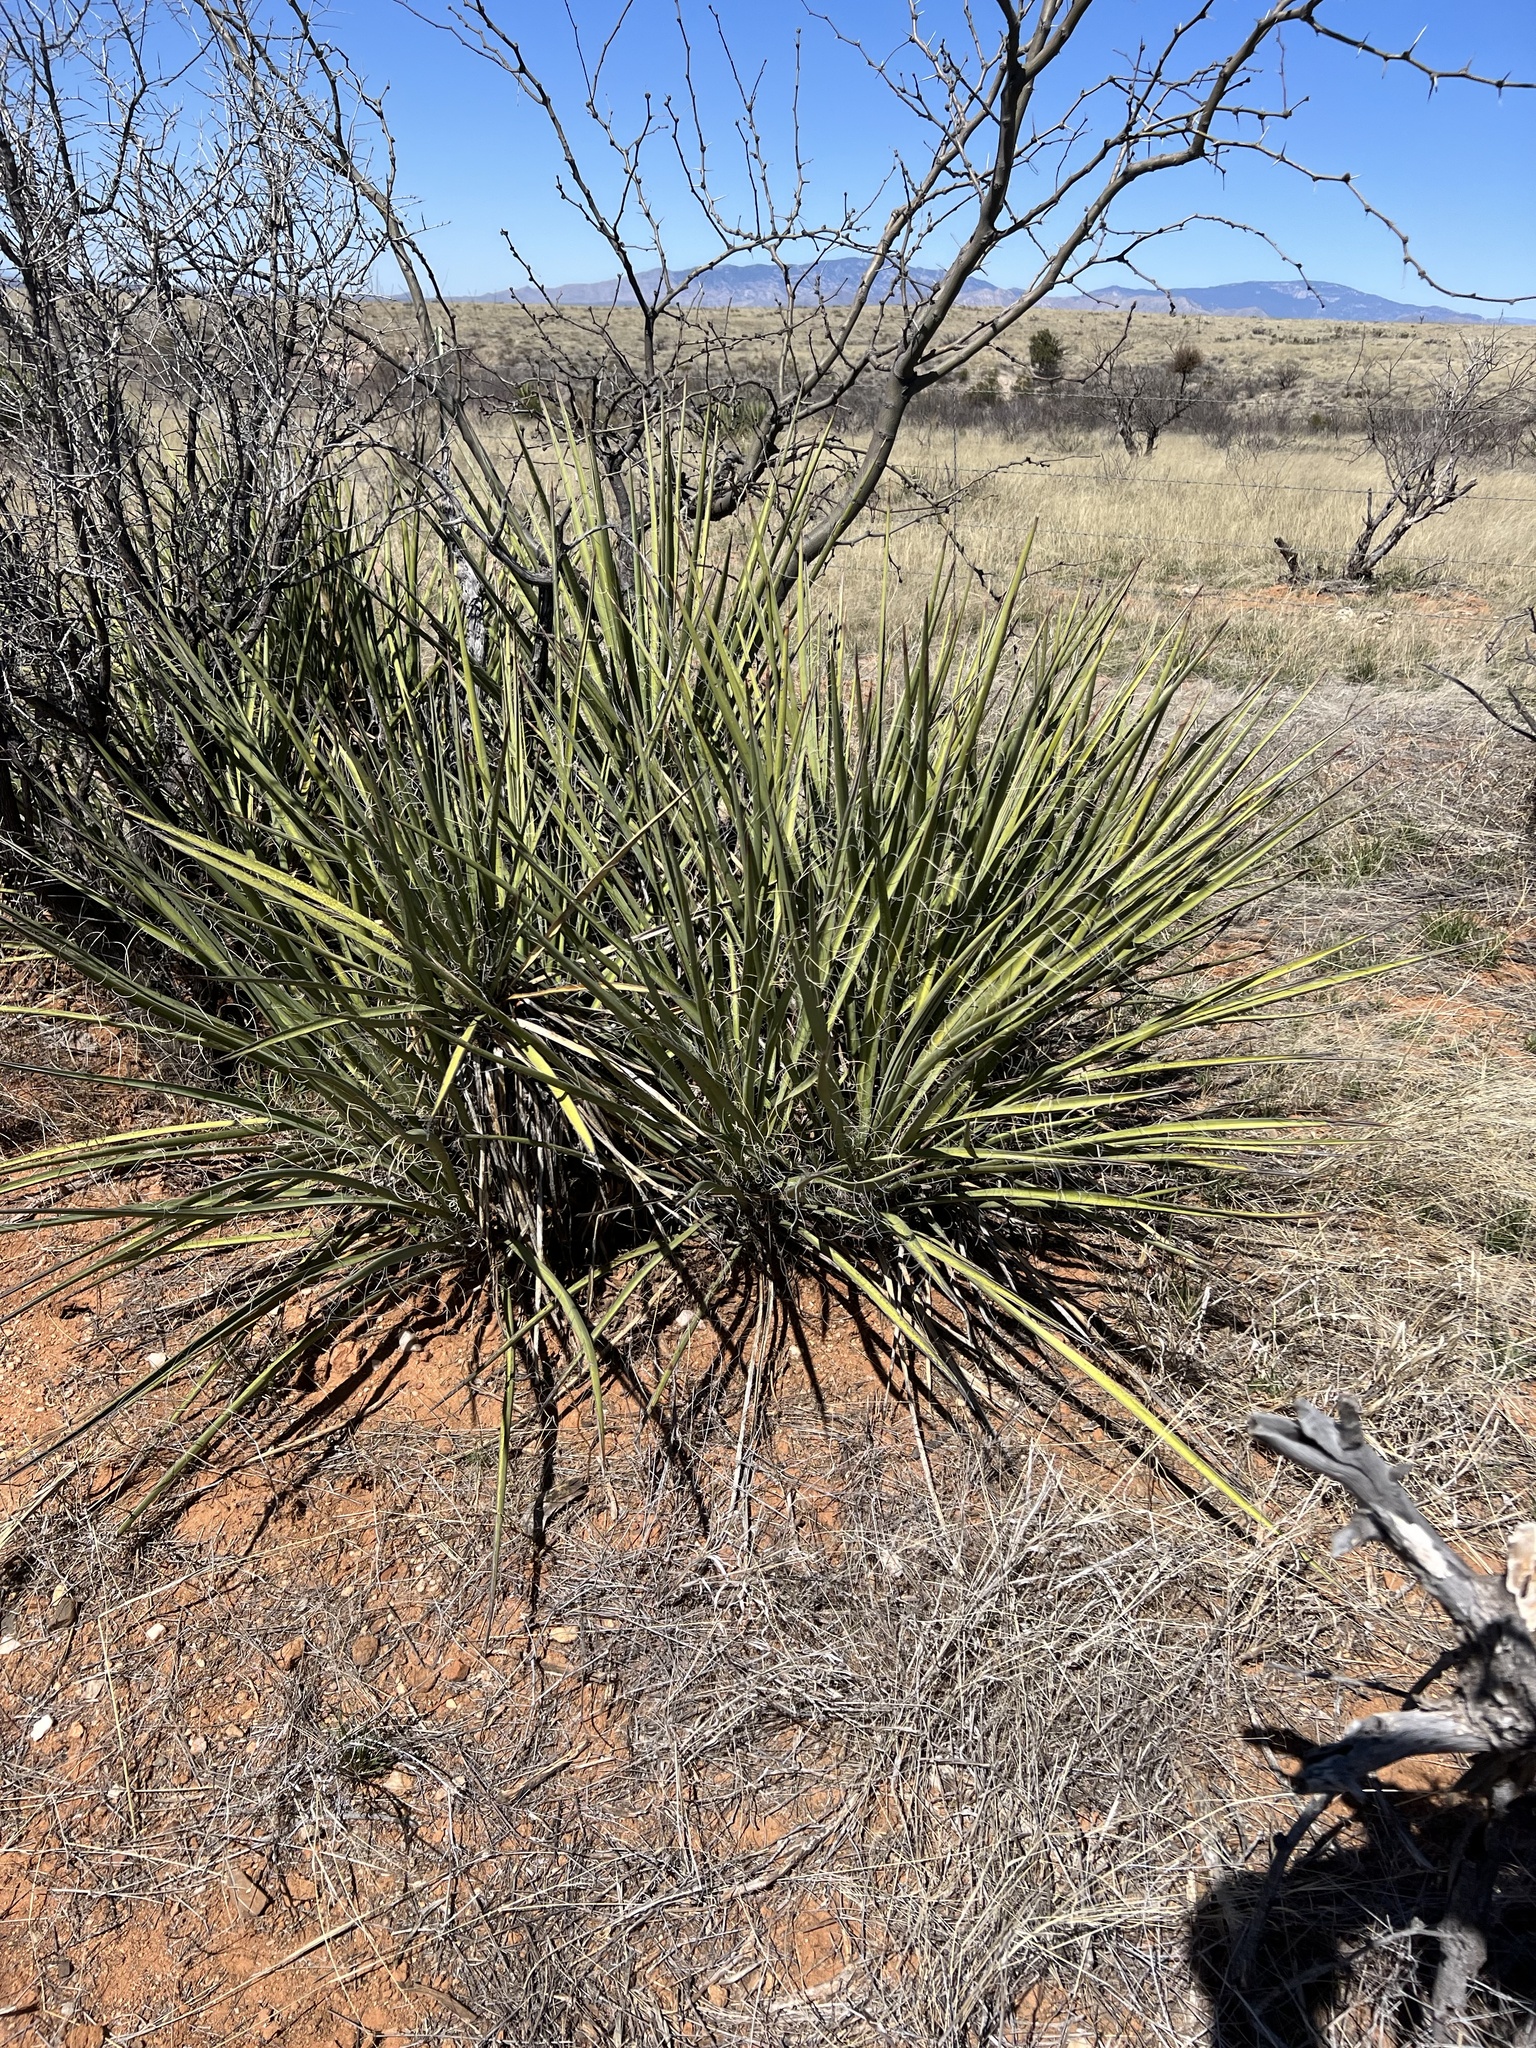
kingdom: Plantae
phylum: Tracheophyta
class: Liliopsida
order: Asparagales
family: Asparagaceae
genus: Yucca
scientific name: Yucca baccata
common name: Banana yucca
